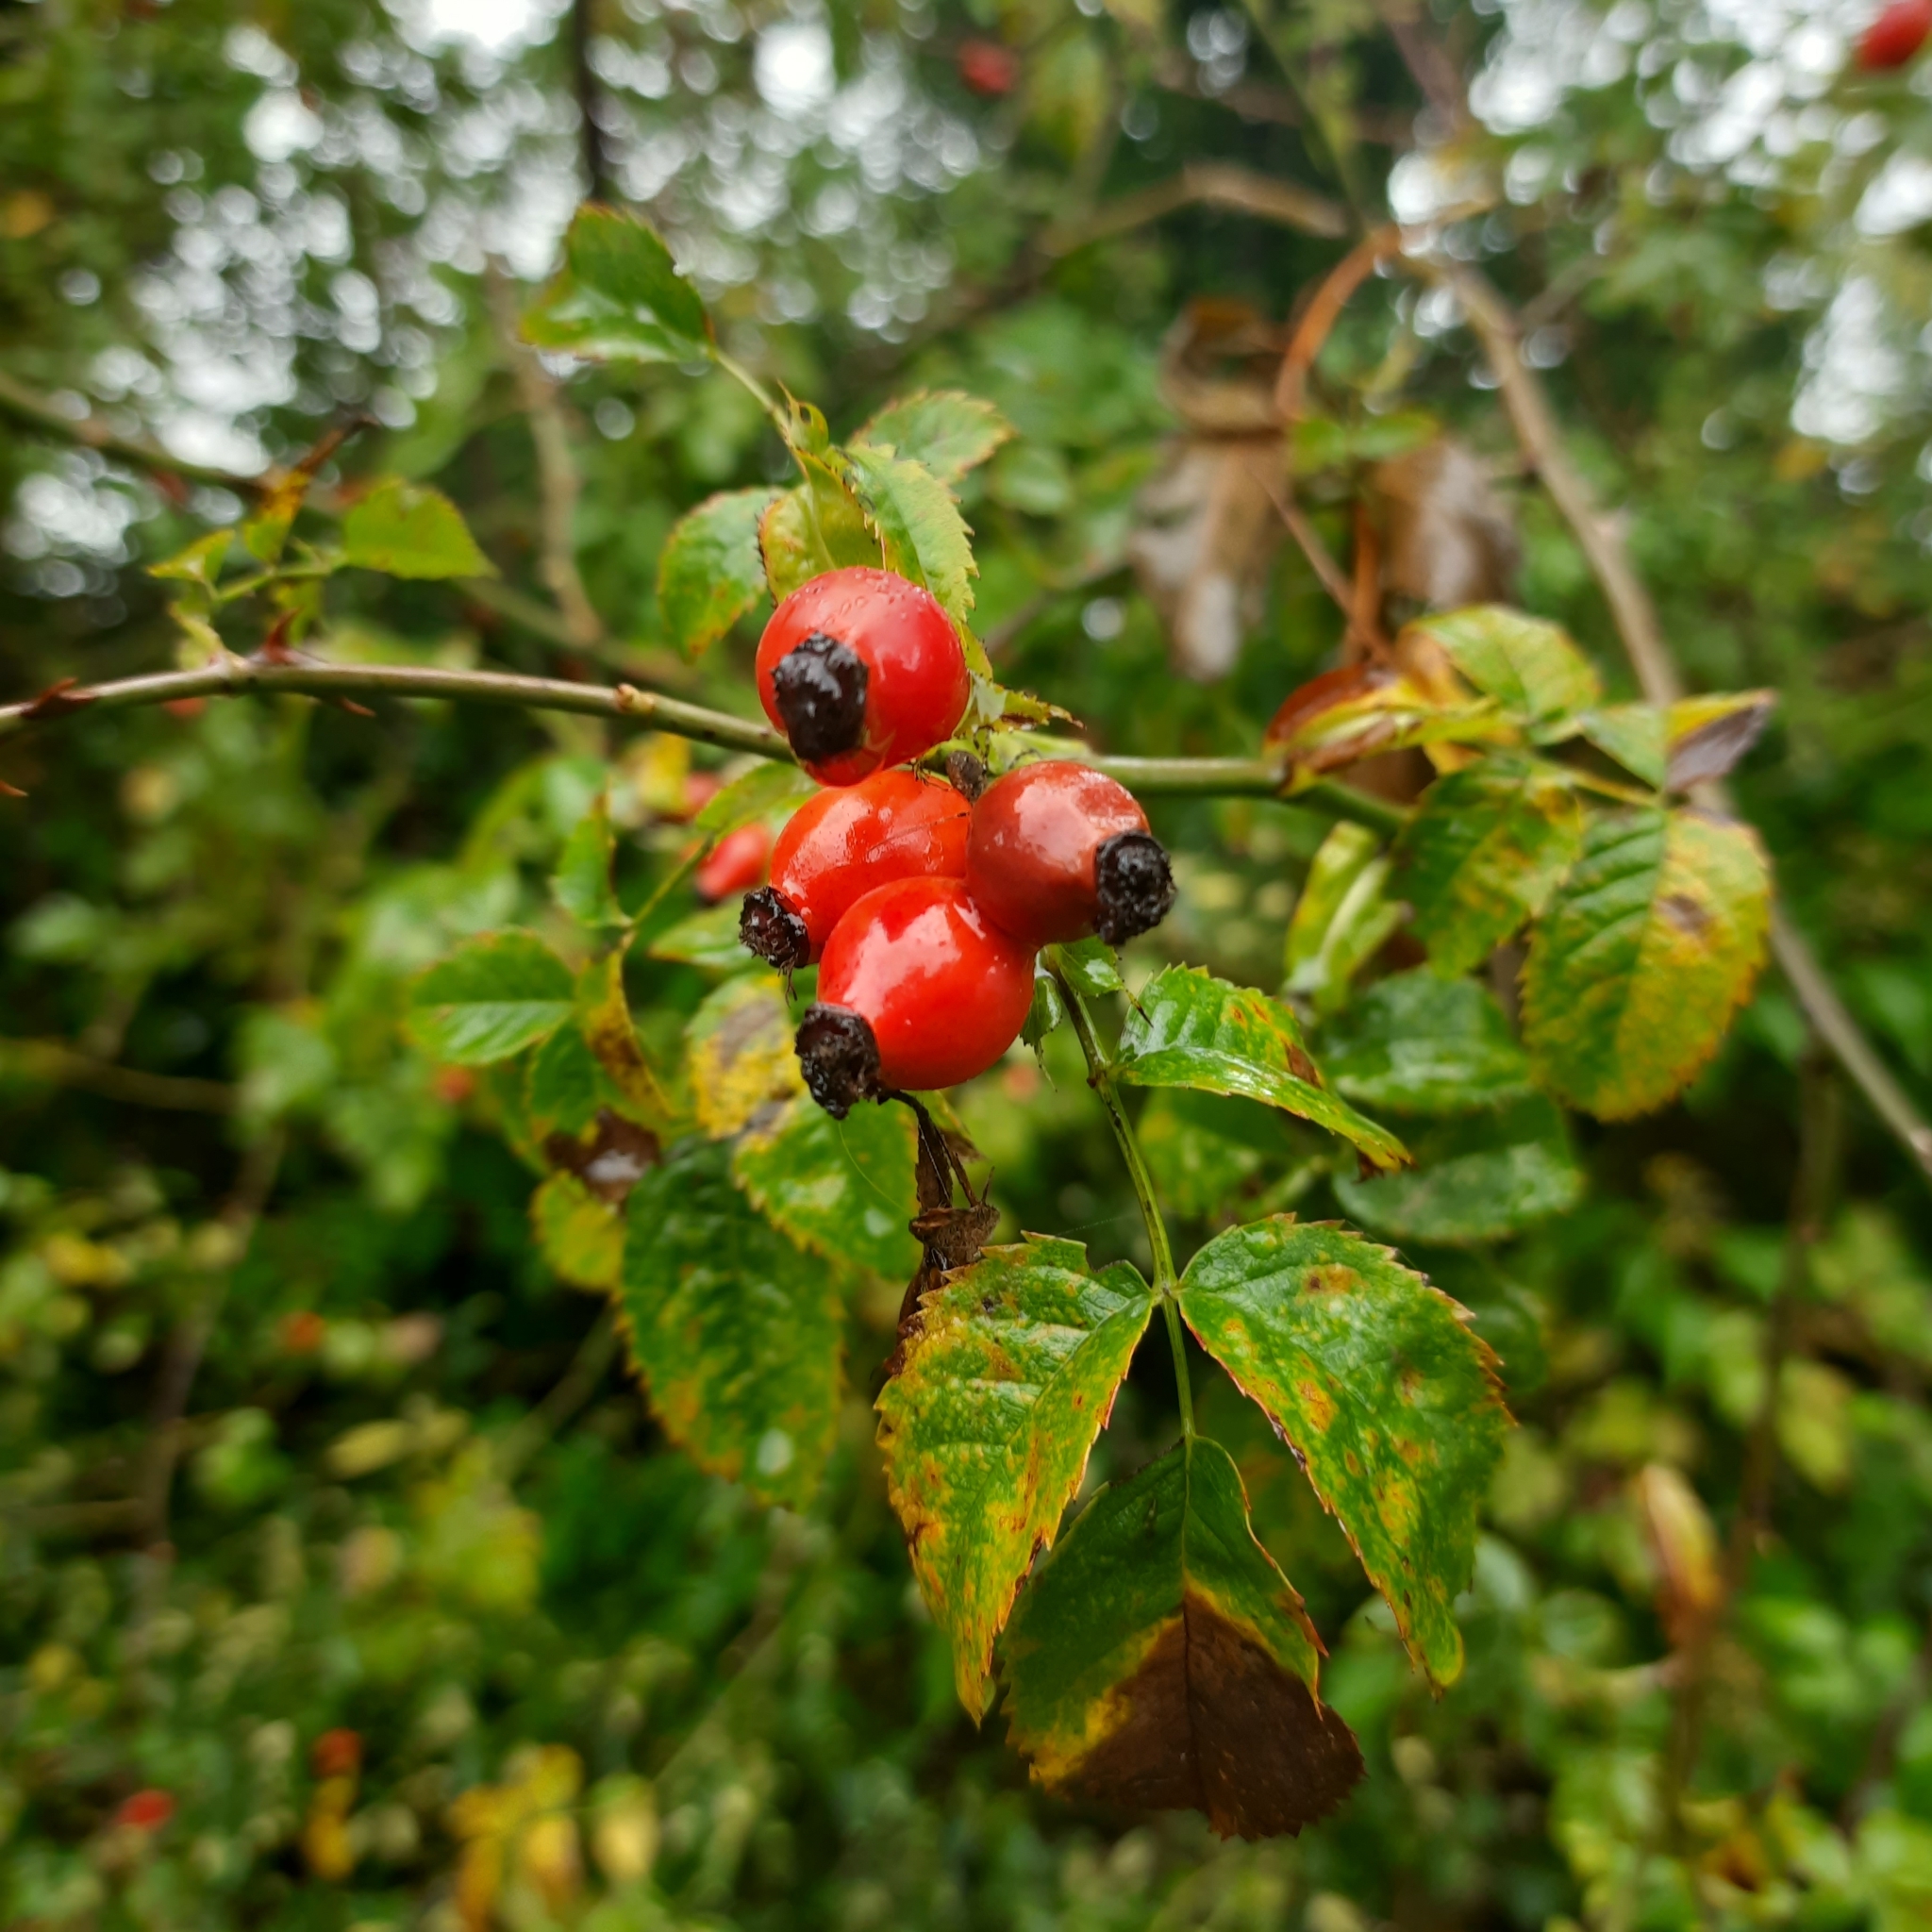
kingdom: Plantae
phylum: Tracheophyta
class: Magnoliopsida
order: Rosales
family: Rosaceae
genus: Rosa
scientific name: Rosa canina
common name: Dog rose
